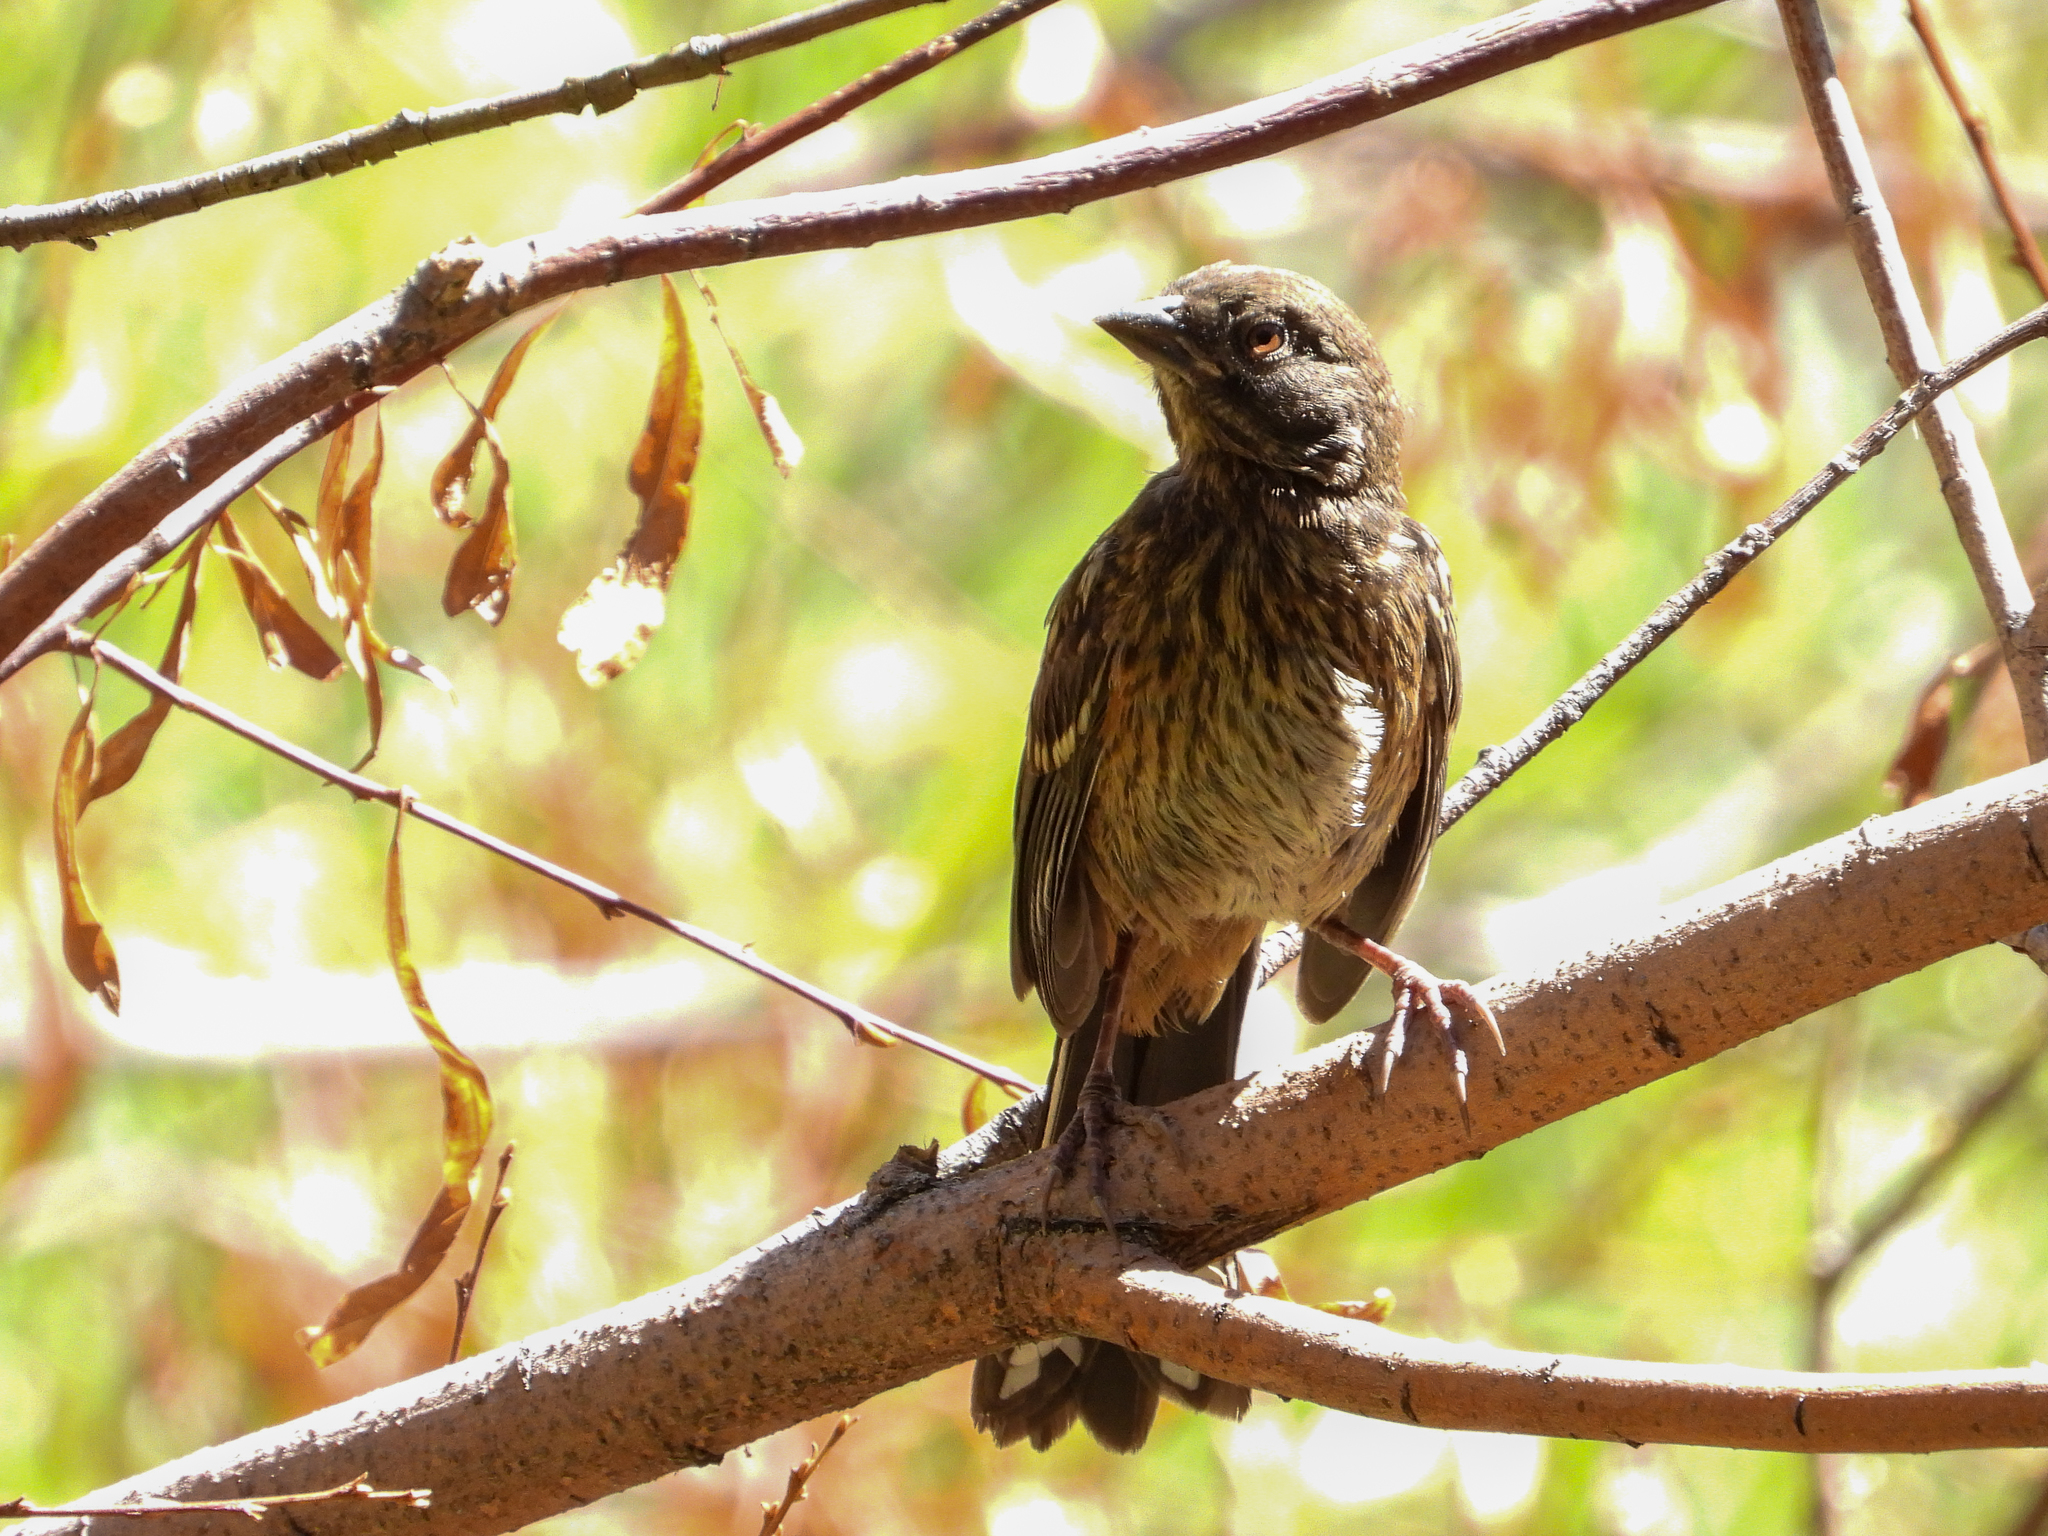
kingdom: Animalia
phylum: Chordata
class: Aves
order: Passeriformes
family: Passerellidae
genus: Pipilo
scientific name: Pipilo maculatus
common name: Spotted towhee
